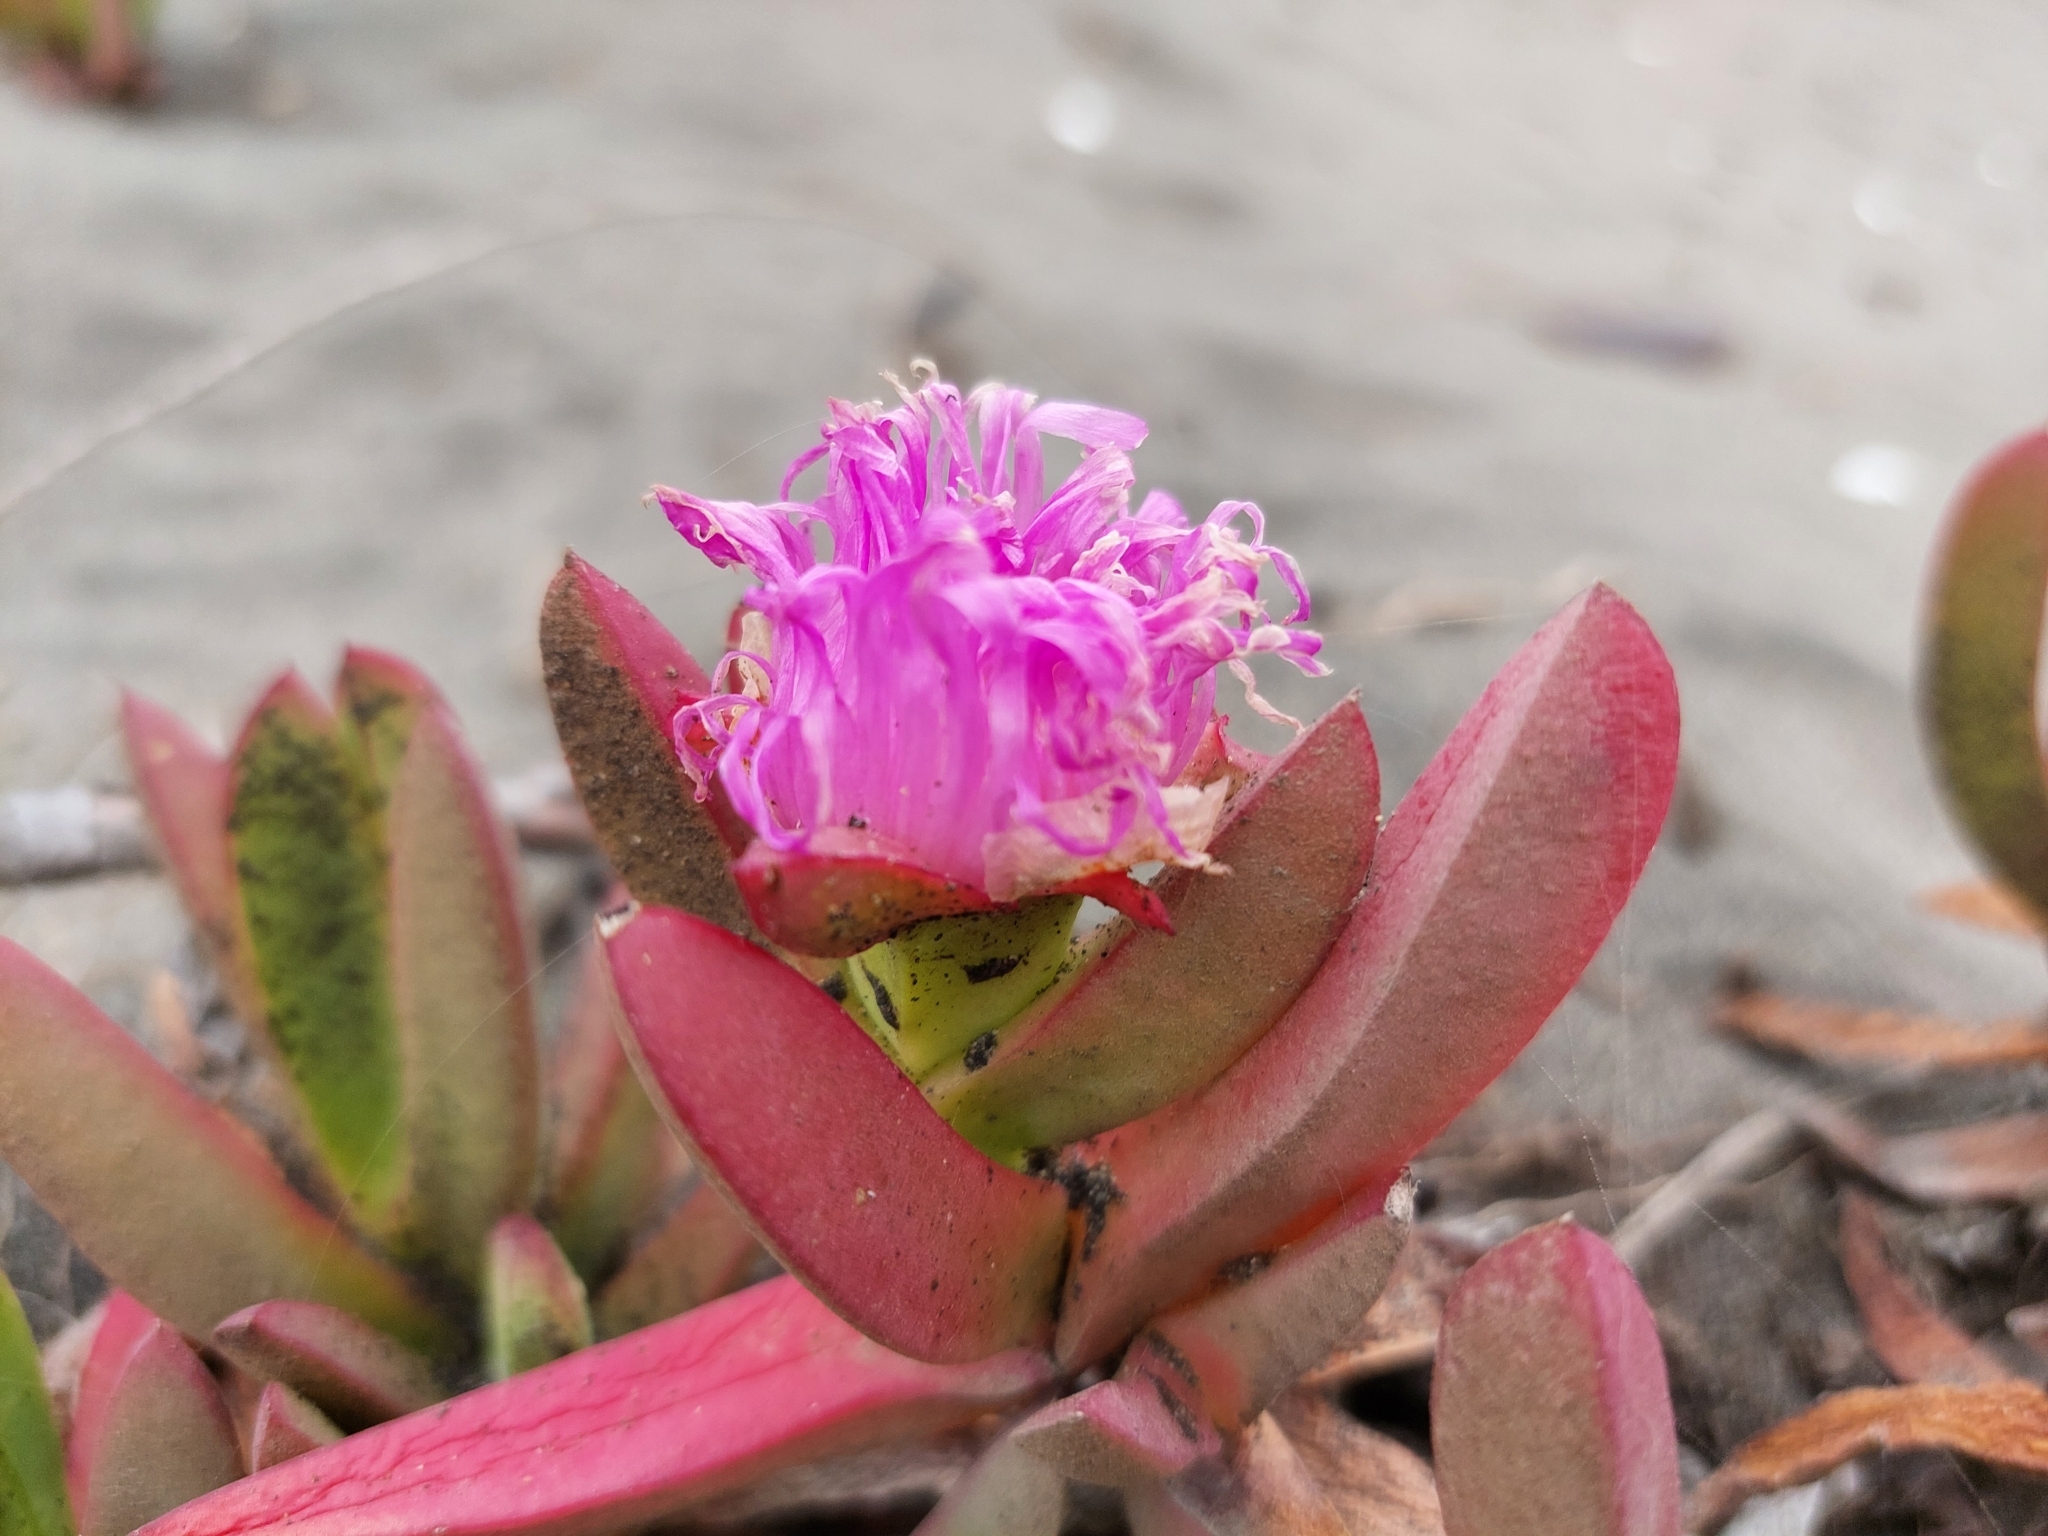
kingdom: Plantae
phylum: Tracheophyta
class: Magnoliopsida
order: Caryophyllales
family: Aizoaceae
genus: Carpobrotus
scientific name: Carpobrotus chilensis
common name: Sea fig
